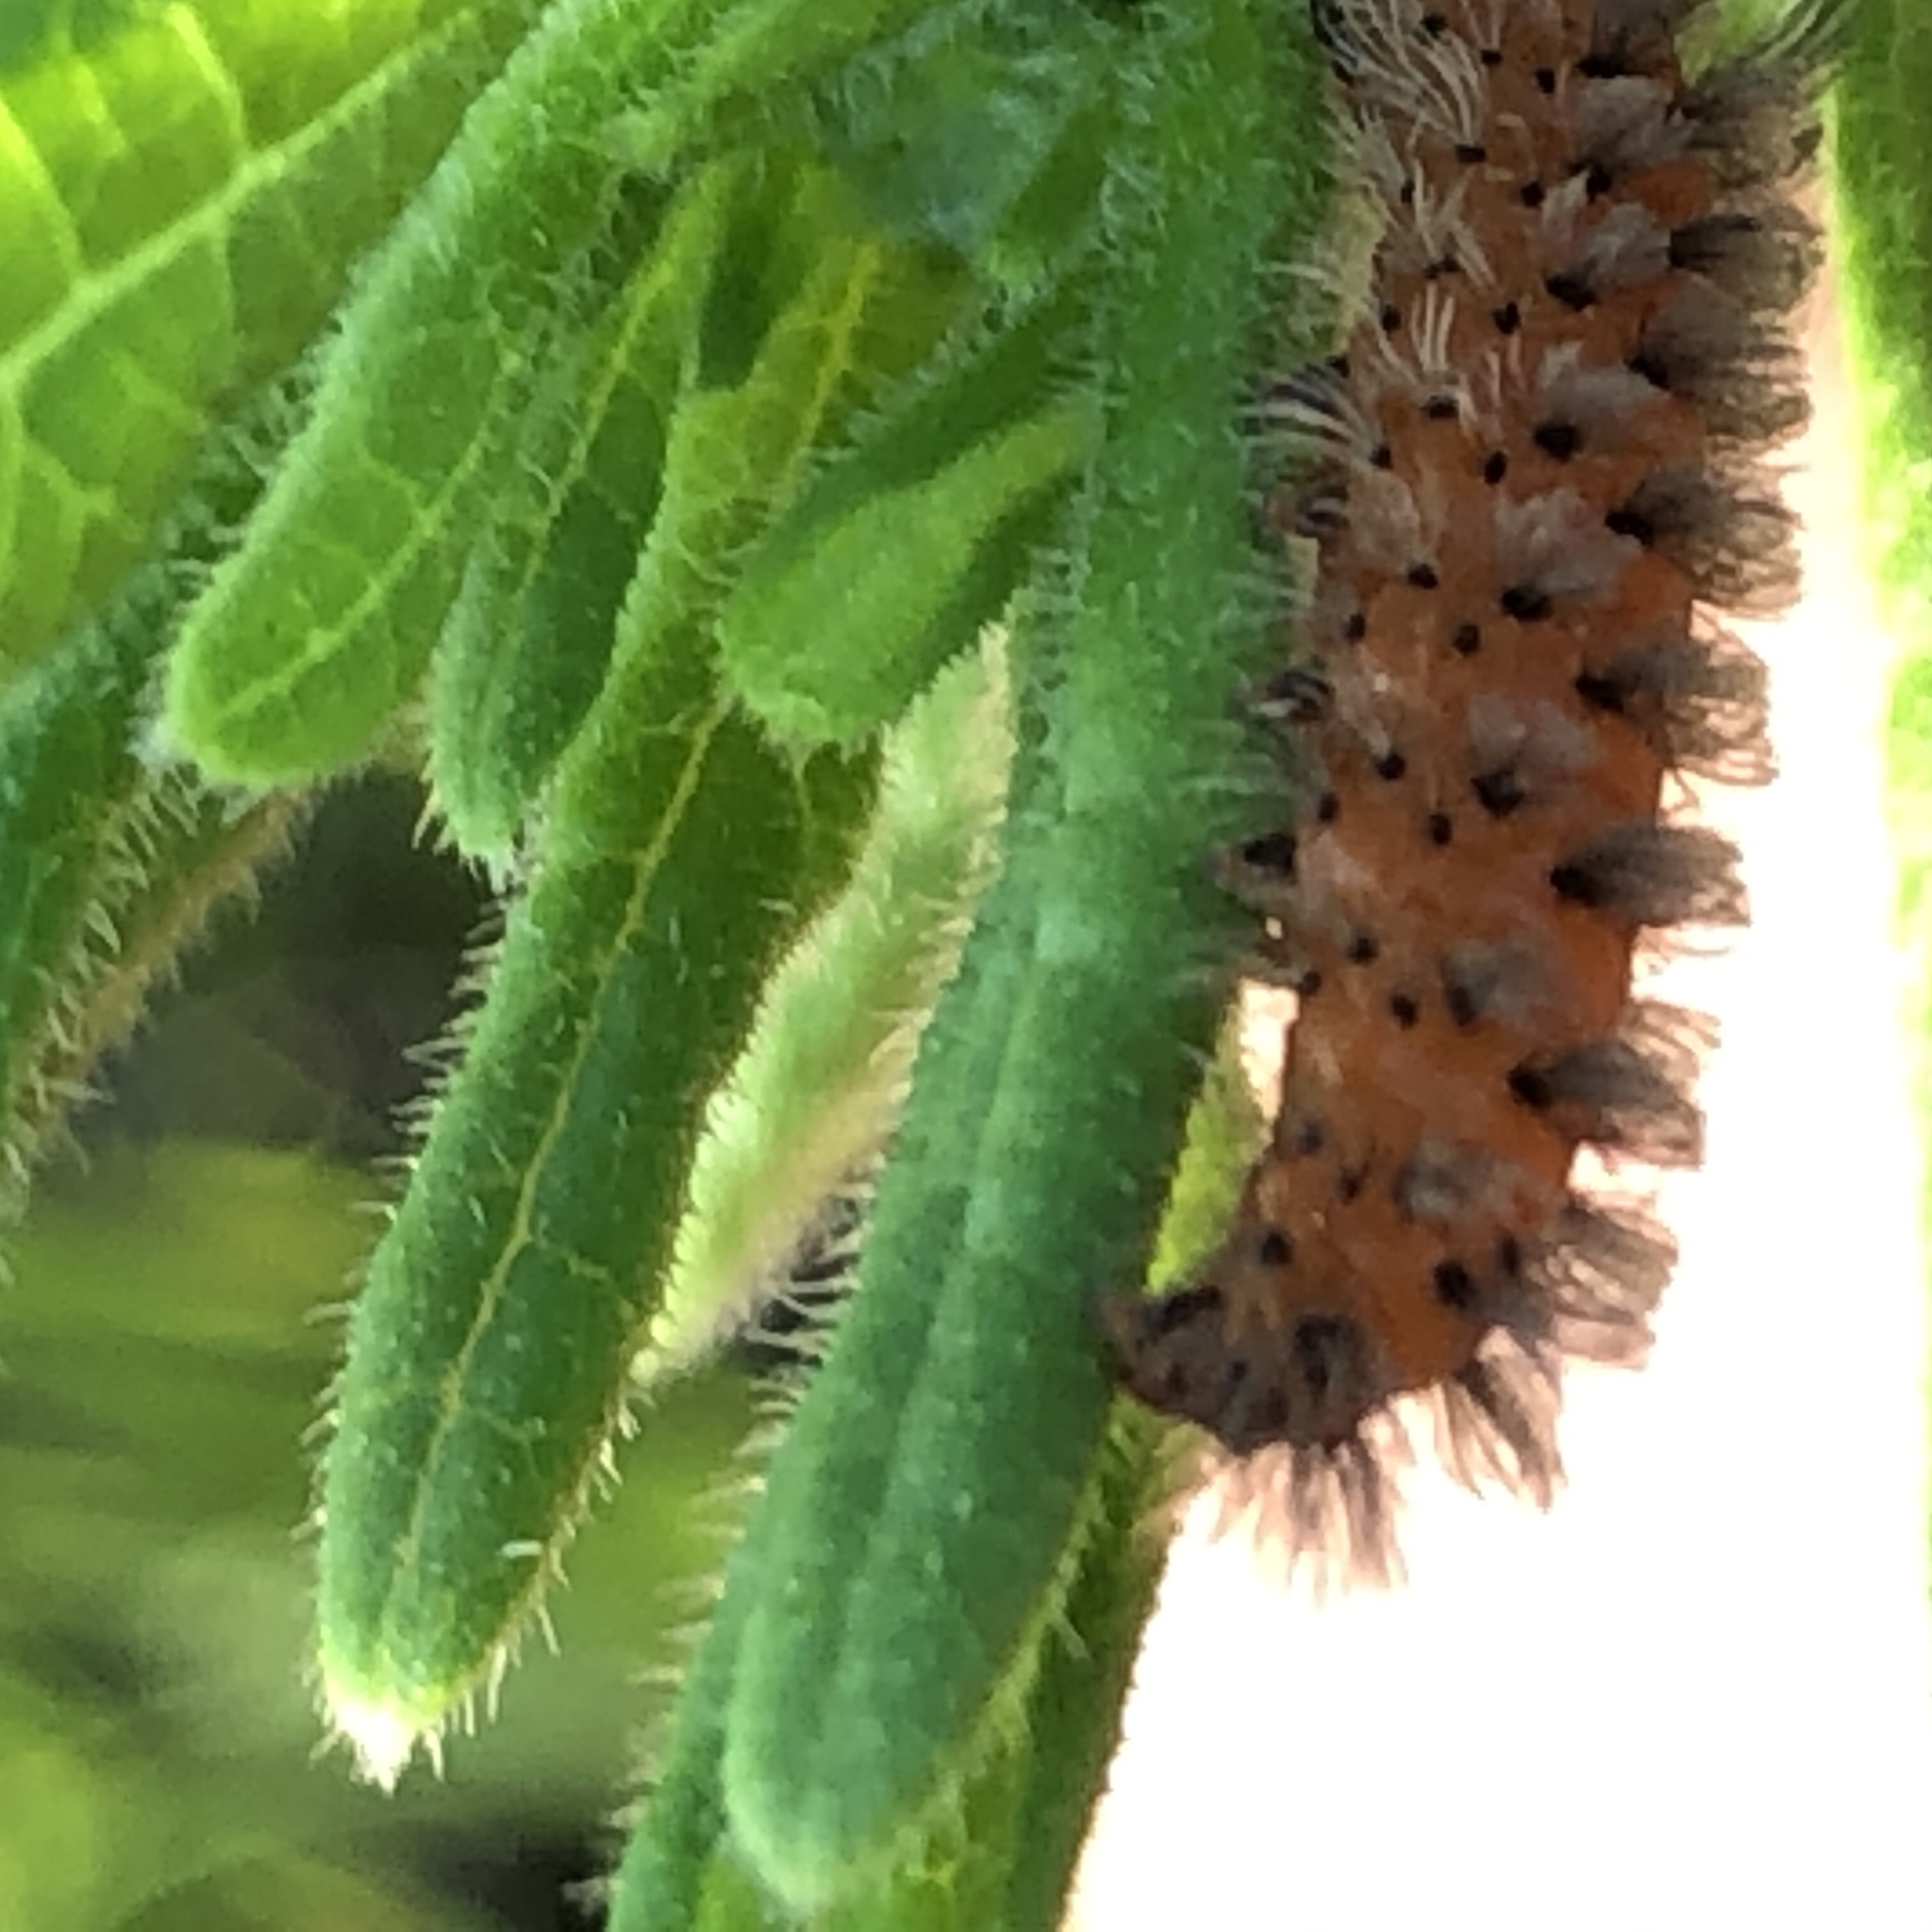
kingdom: Animalia
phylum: Arthropoda
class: Insecta
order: Lepidoptera
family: Erebidae
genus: Cycnia
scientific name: Cycnia collaris
